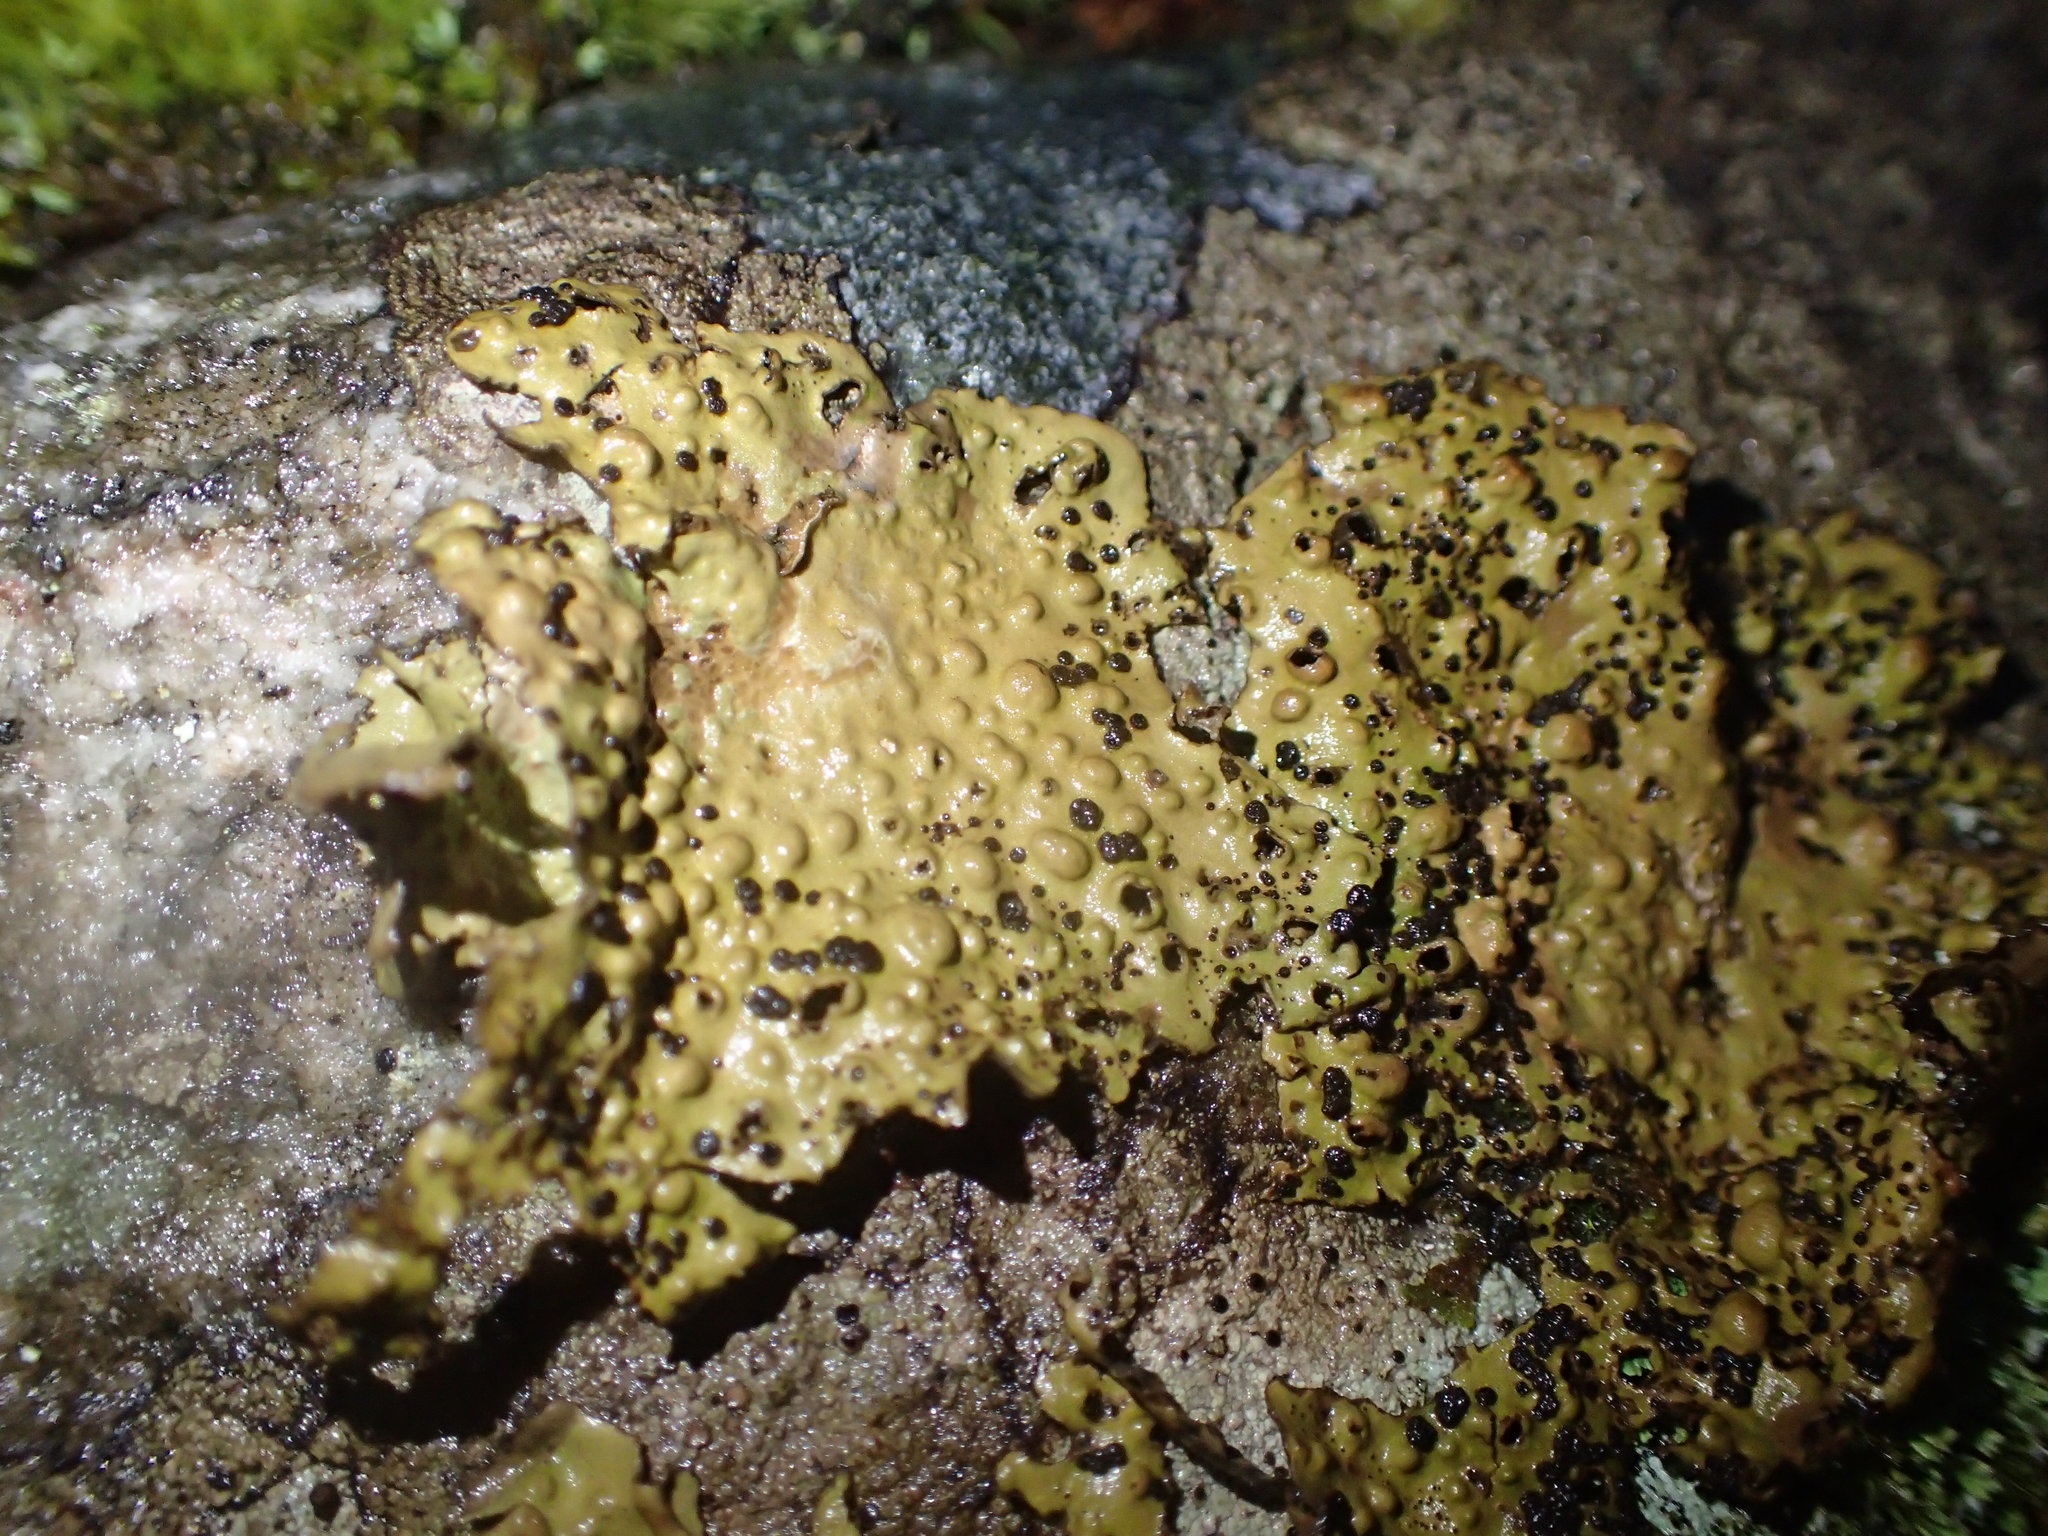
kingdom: Fungi
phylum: Ascomycota
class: Lecanoromycetes
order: Umbilicariales
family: Umbilicariaceae
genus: Lasallia
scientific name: Lasallia papulosa
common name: Common toadskin lichen
